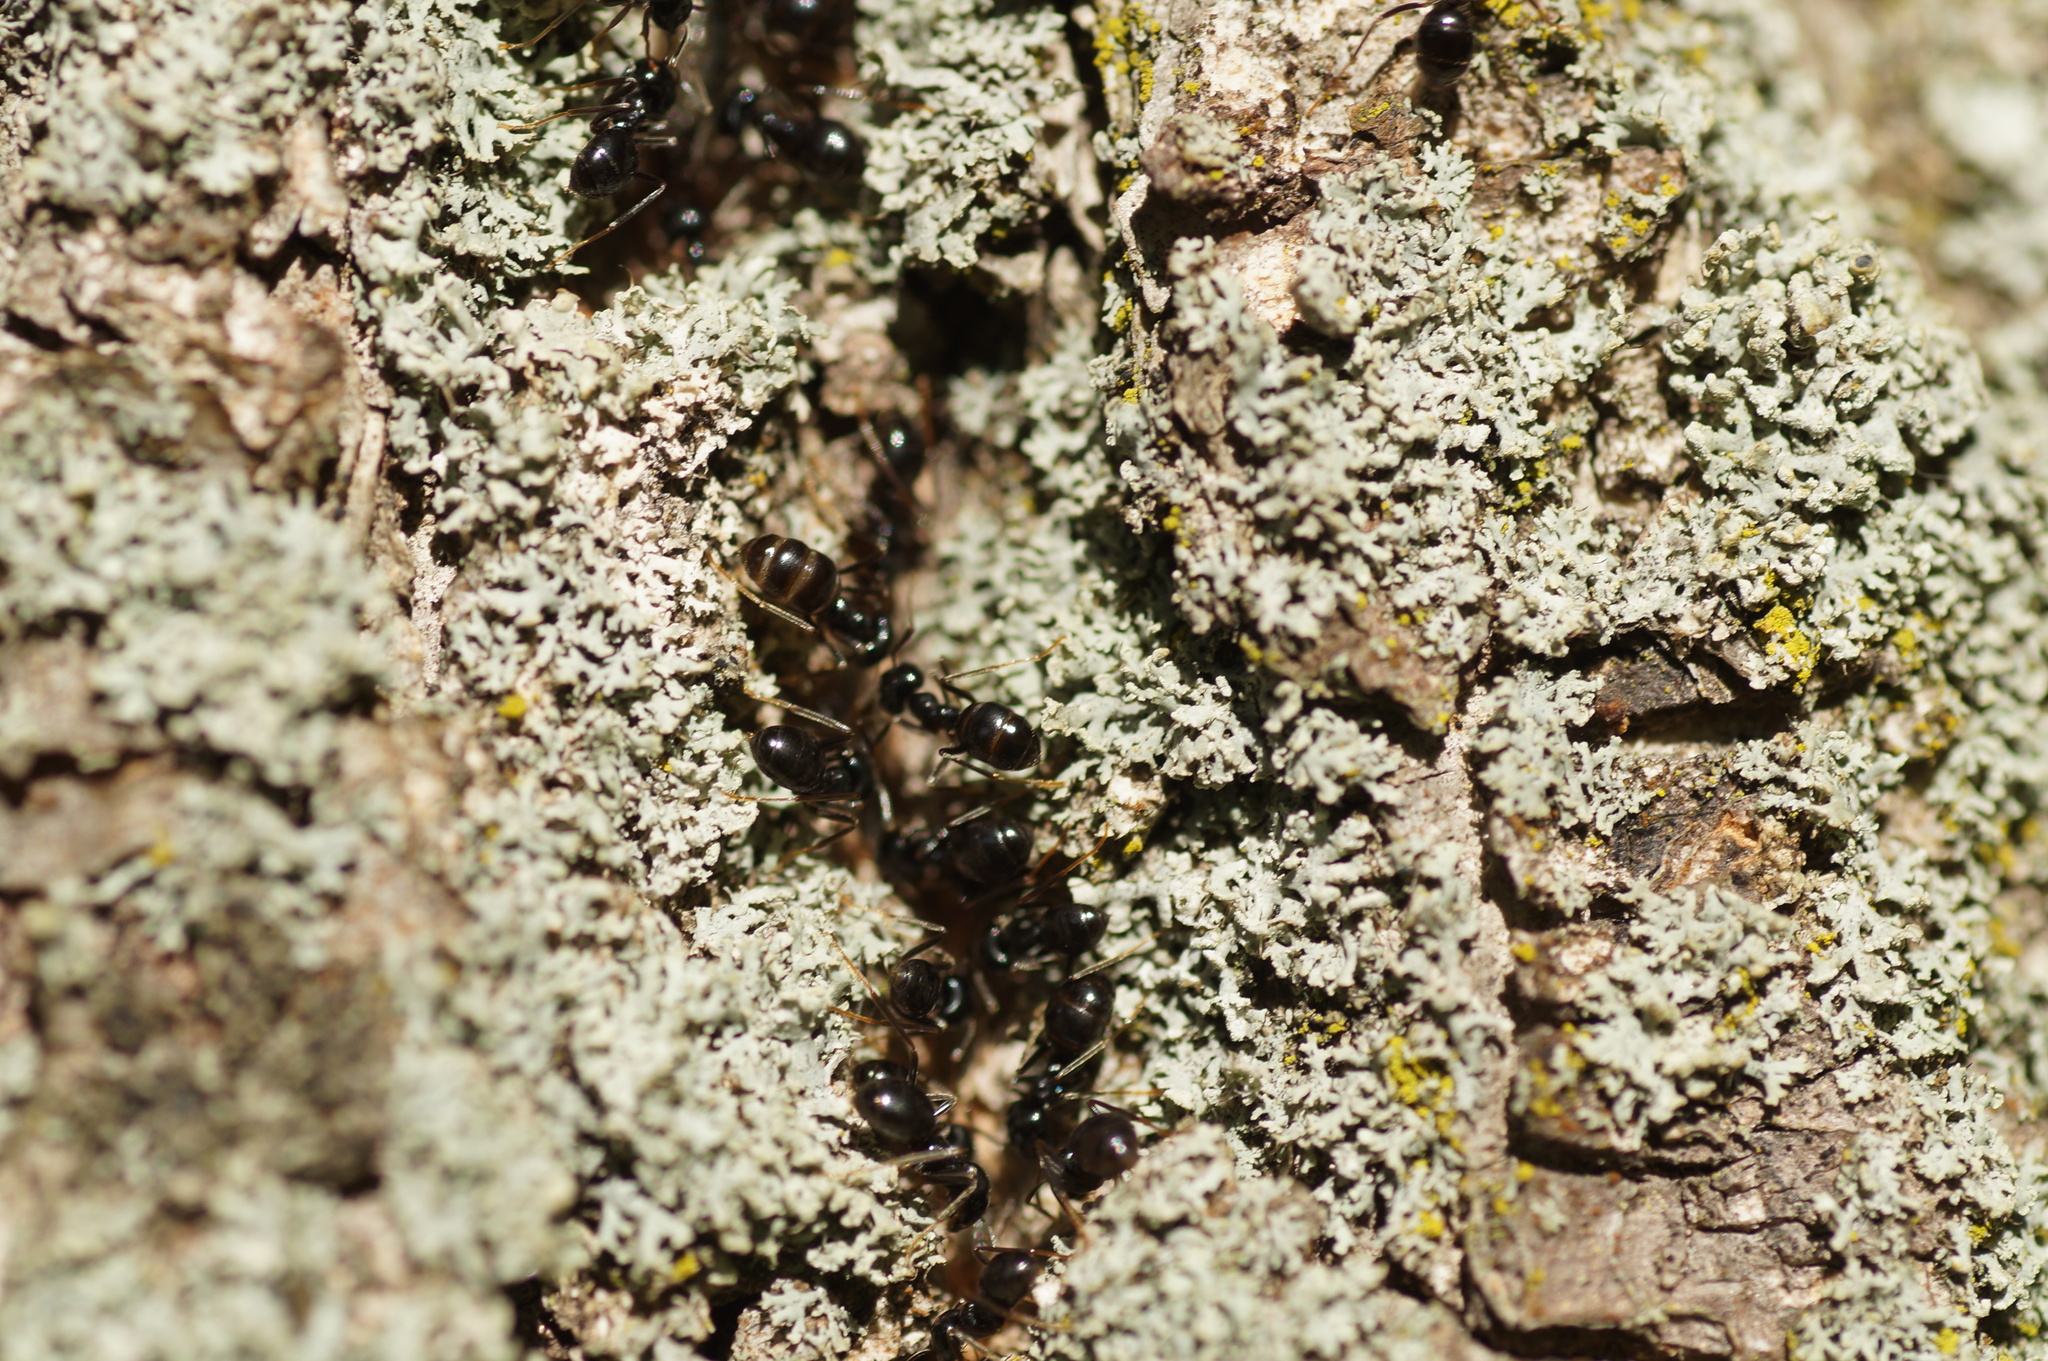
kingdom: Animalia
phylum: Arthropoda
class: Insecta
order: Hymenoptera
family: Formicidae
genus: Lasius
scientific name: Lasius fuliginosus
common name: Jet ant
